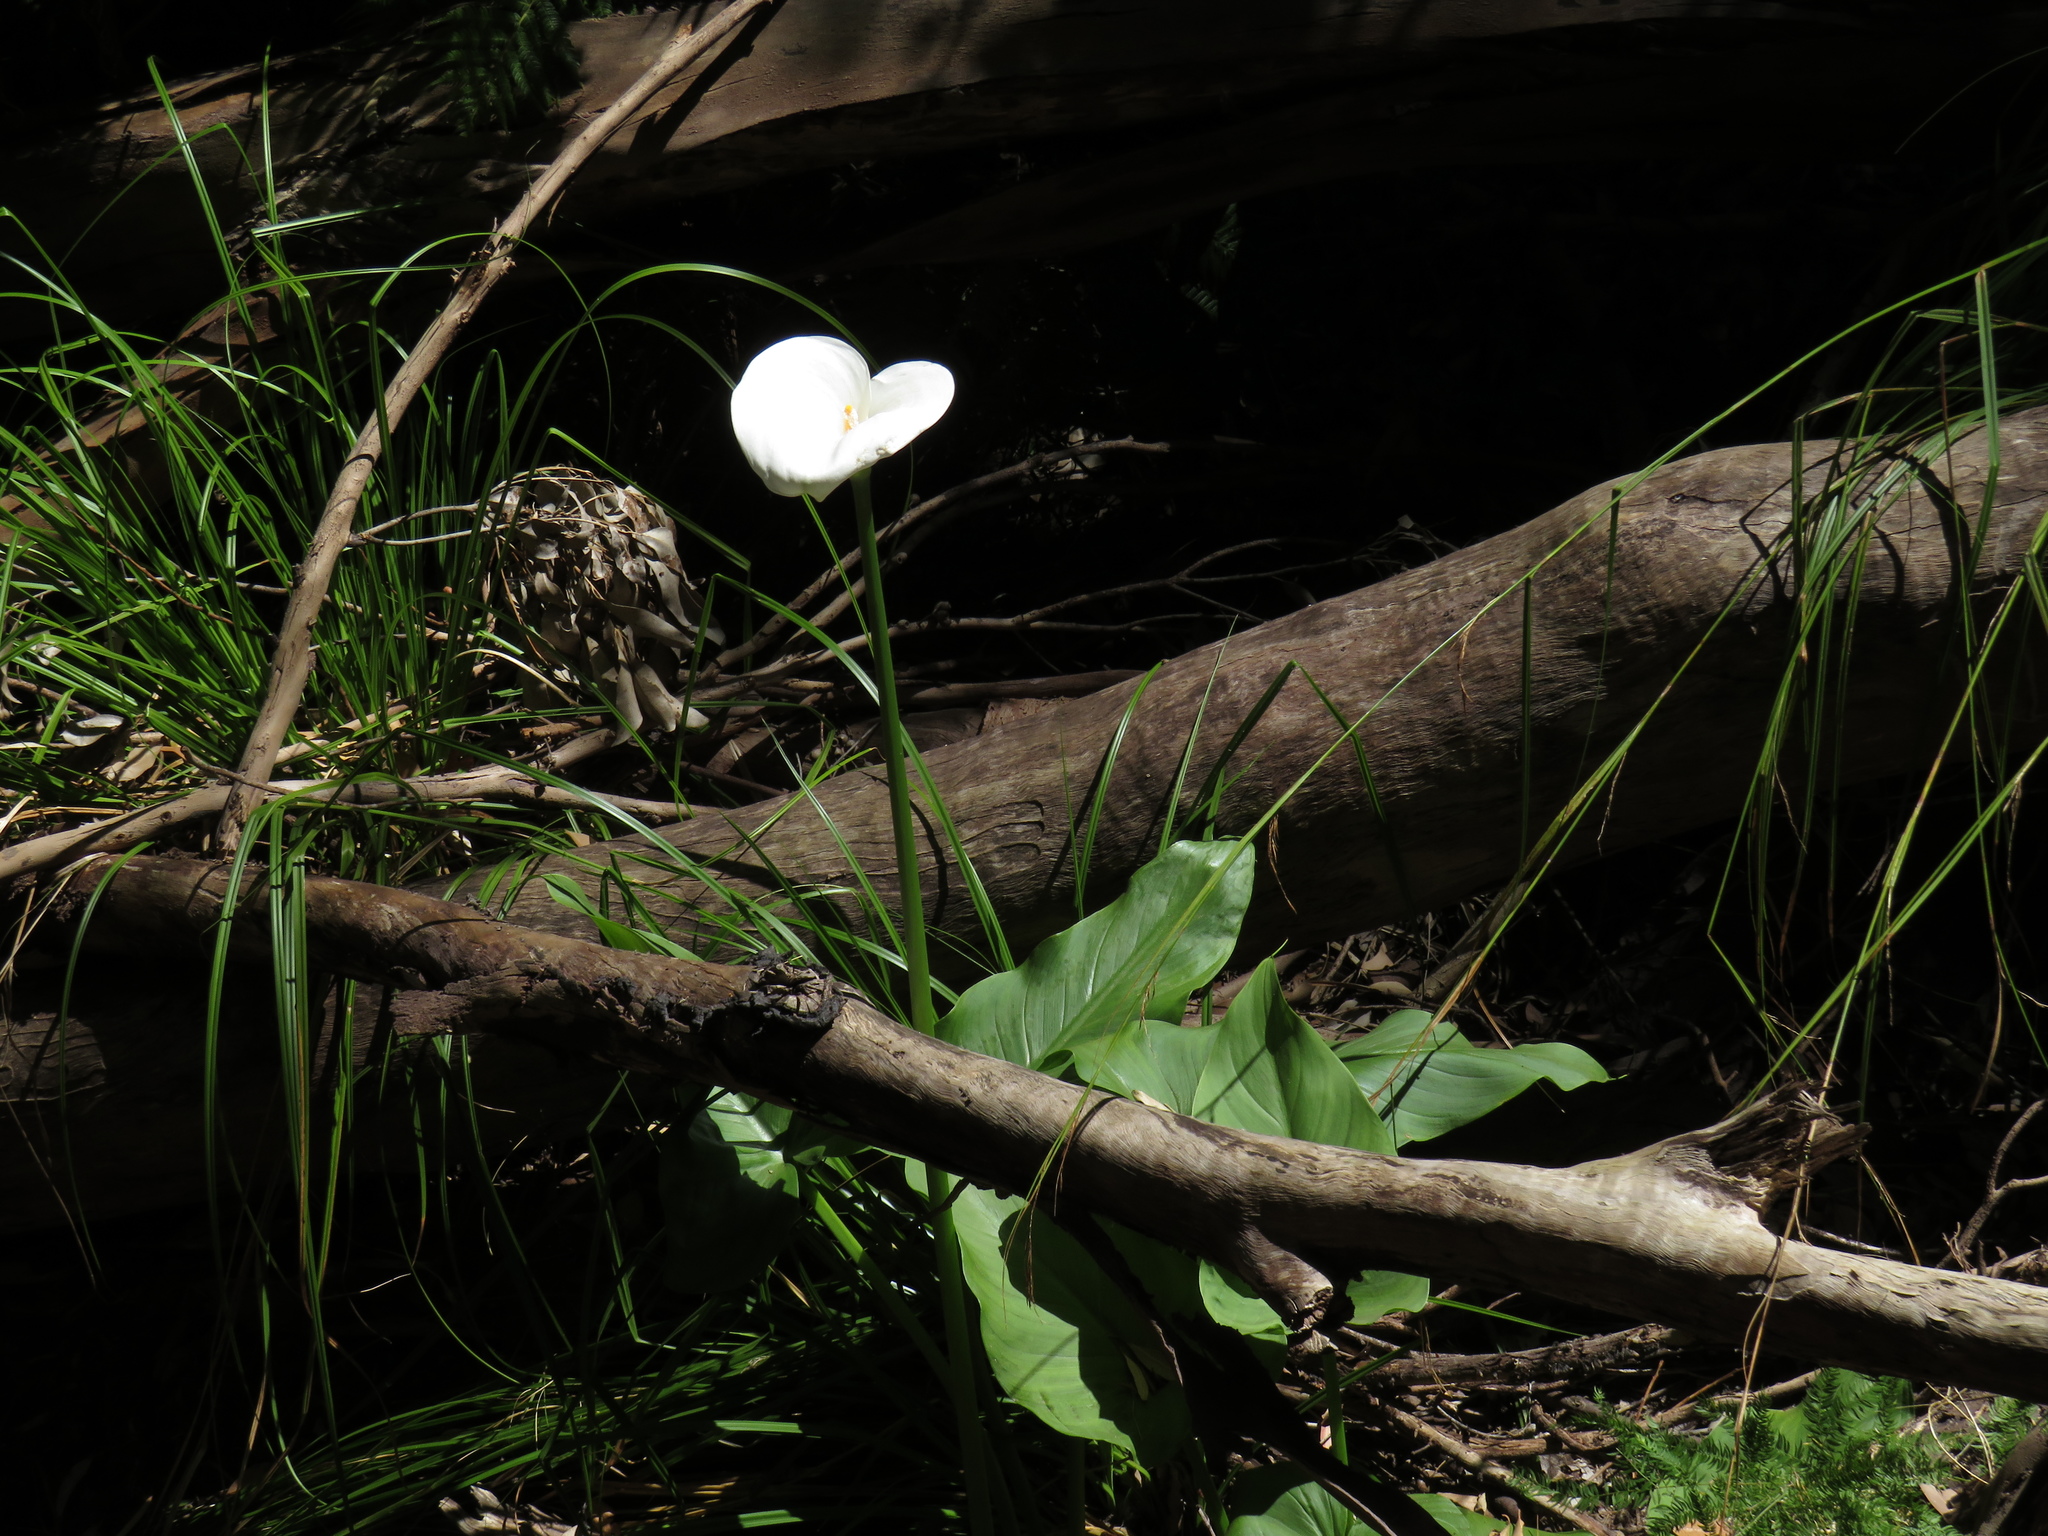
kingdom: Plantae
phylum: Tracheophyta
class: Liliopsida
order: Alismatales
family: Araceae
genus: Zantedeschia
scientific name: Zantedeschia aethiopica
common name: Altar-lily
